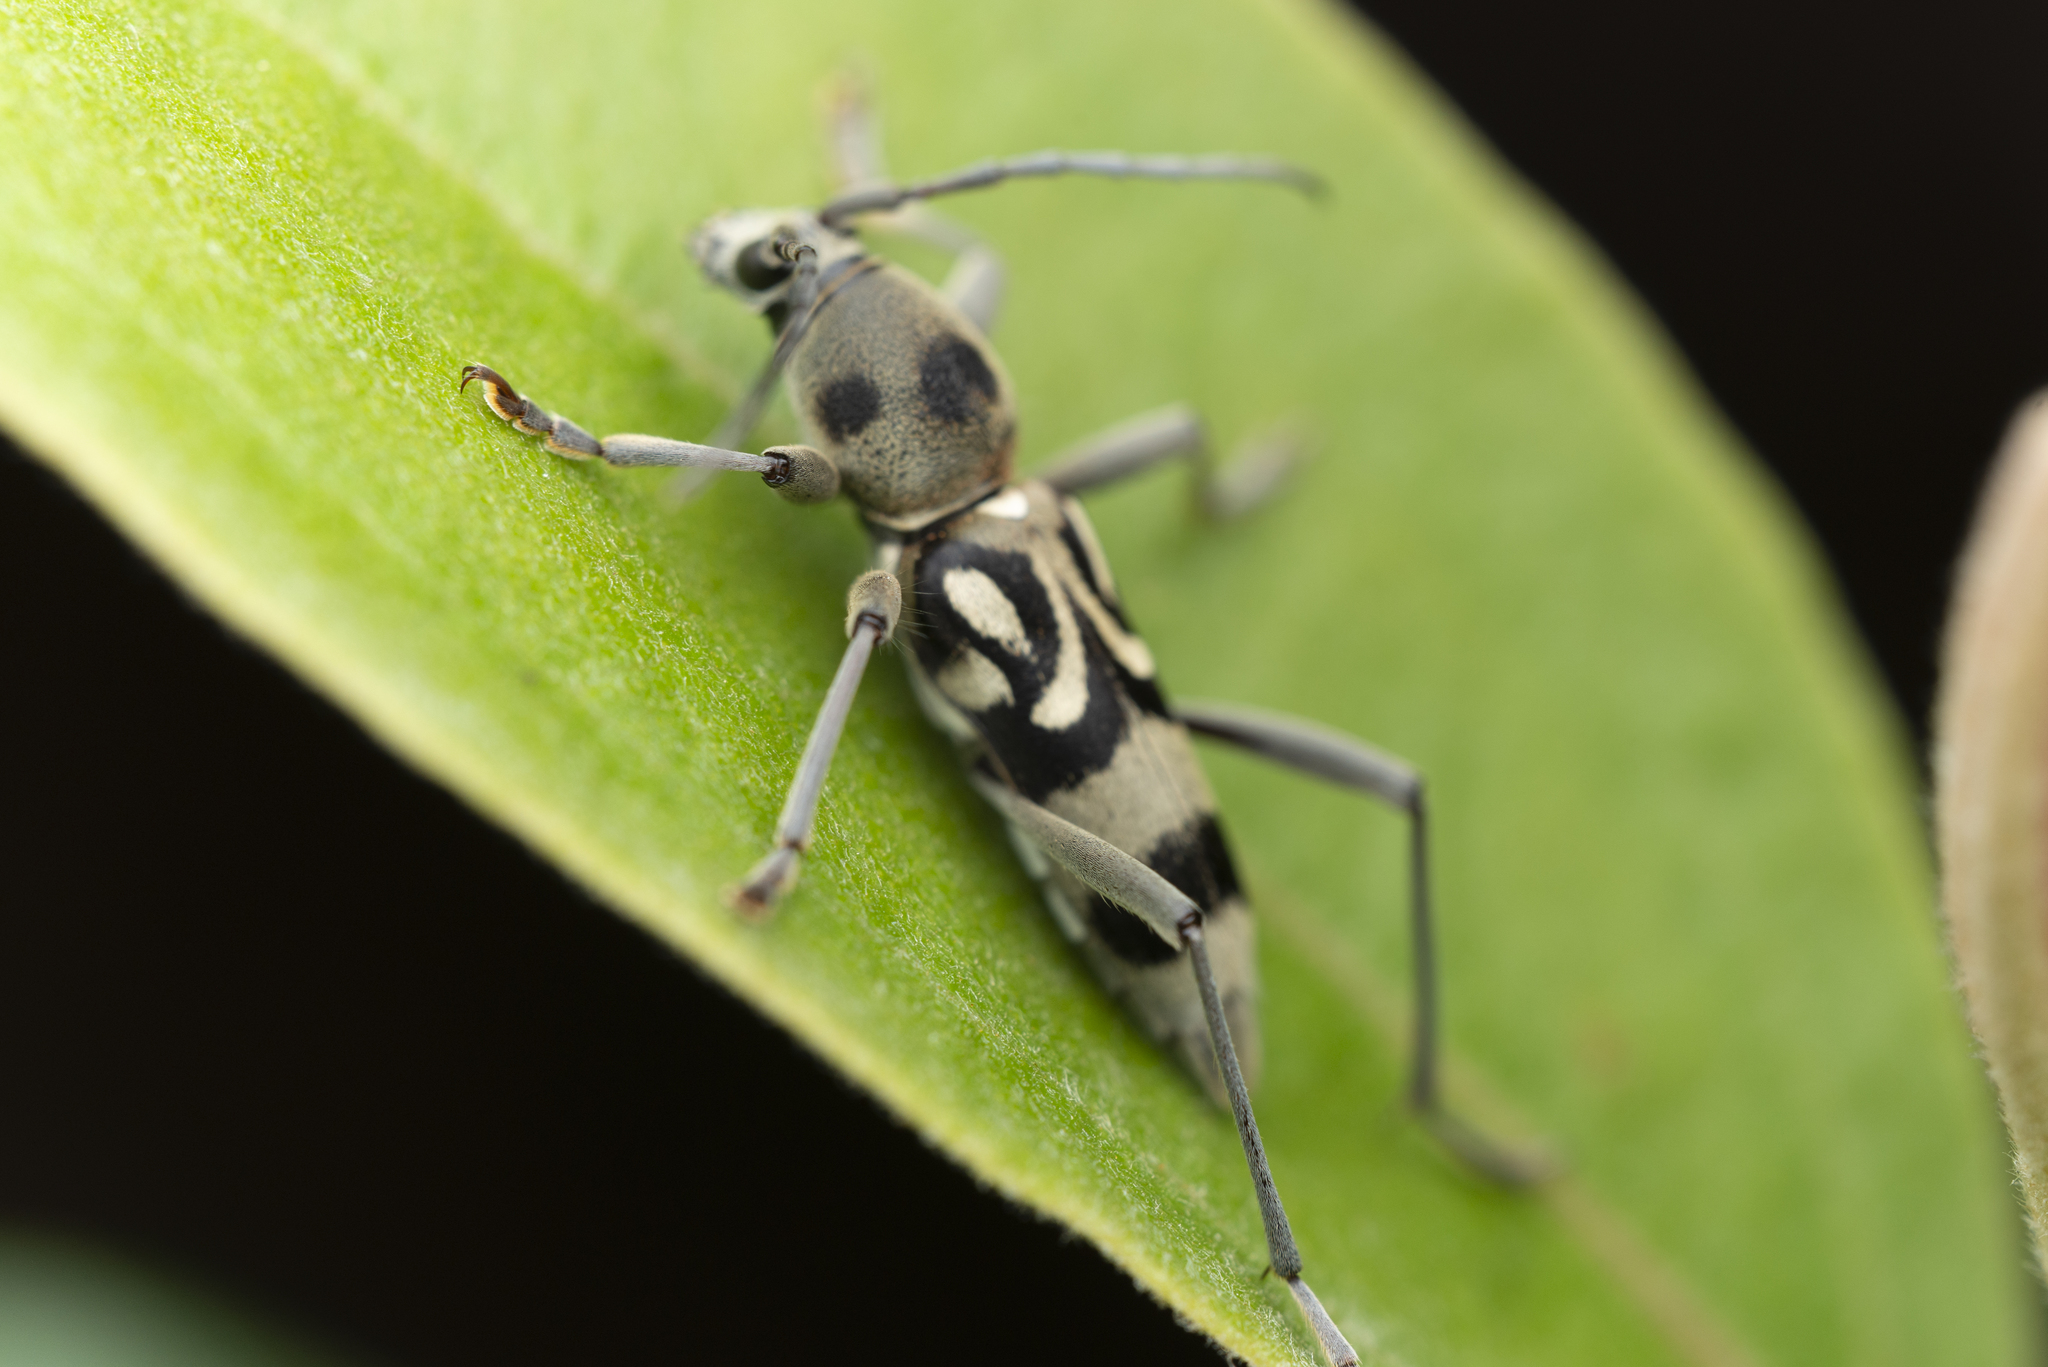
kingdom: Animalia
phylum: Arthropoda
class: Insecta
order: Coleoptera
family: Cerambycidae
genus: Chlorophorus
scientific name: Chlorophorus macaumensis
